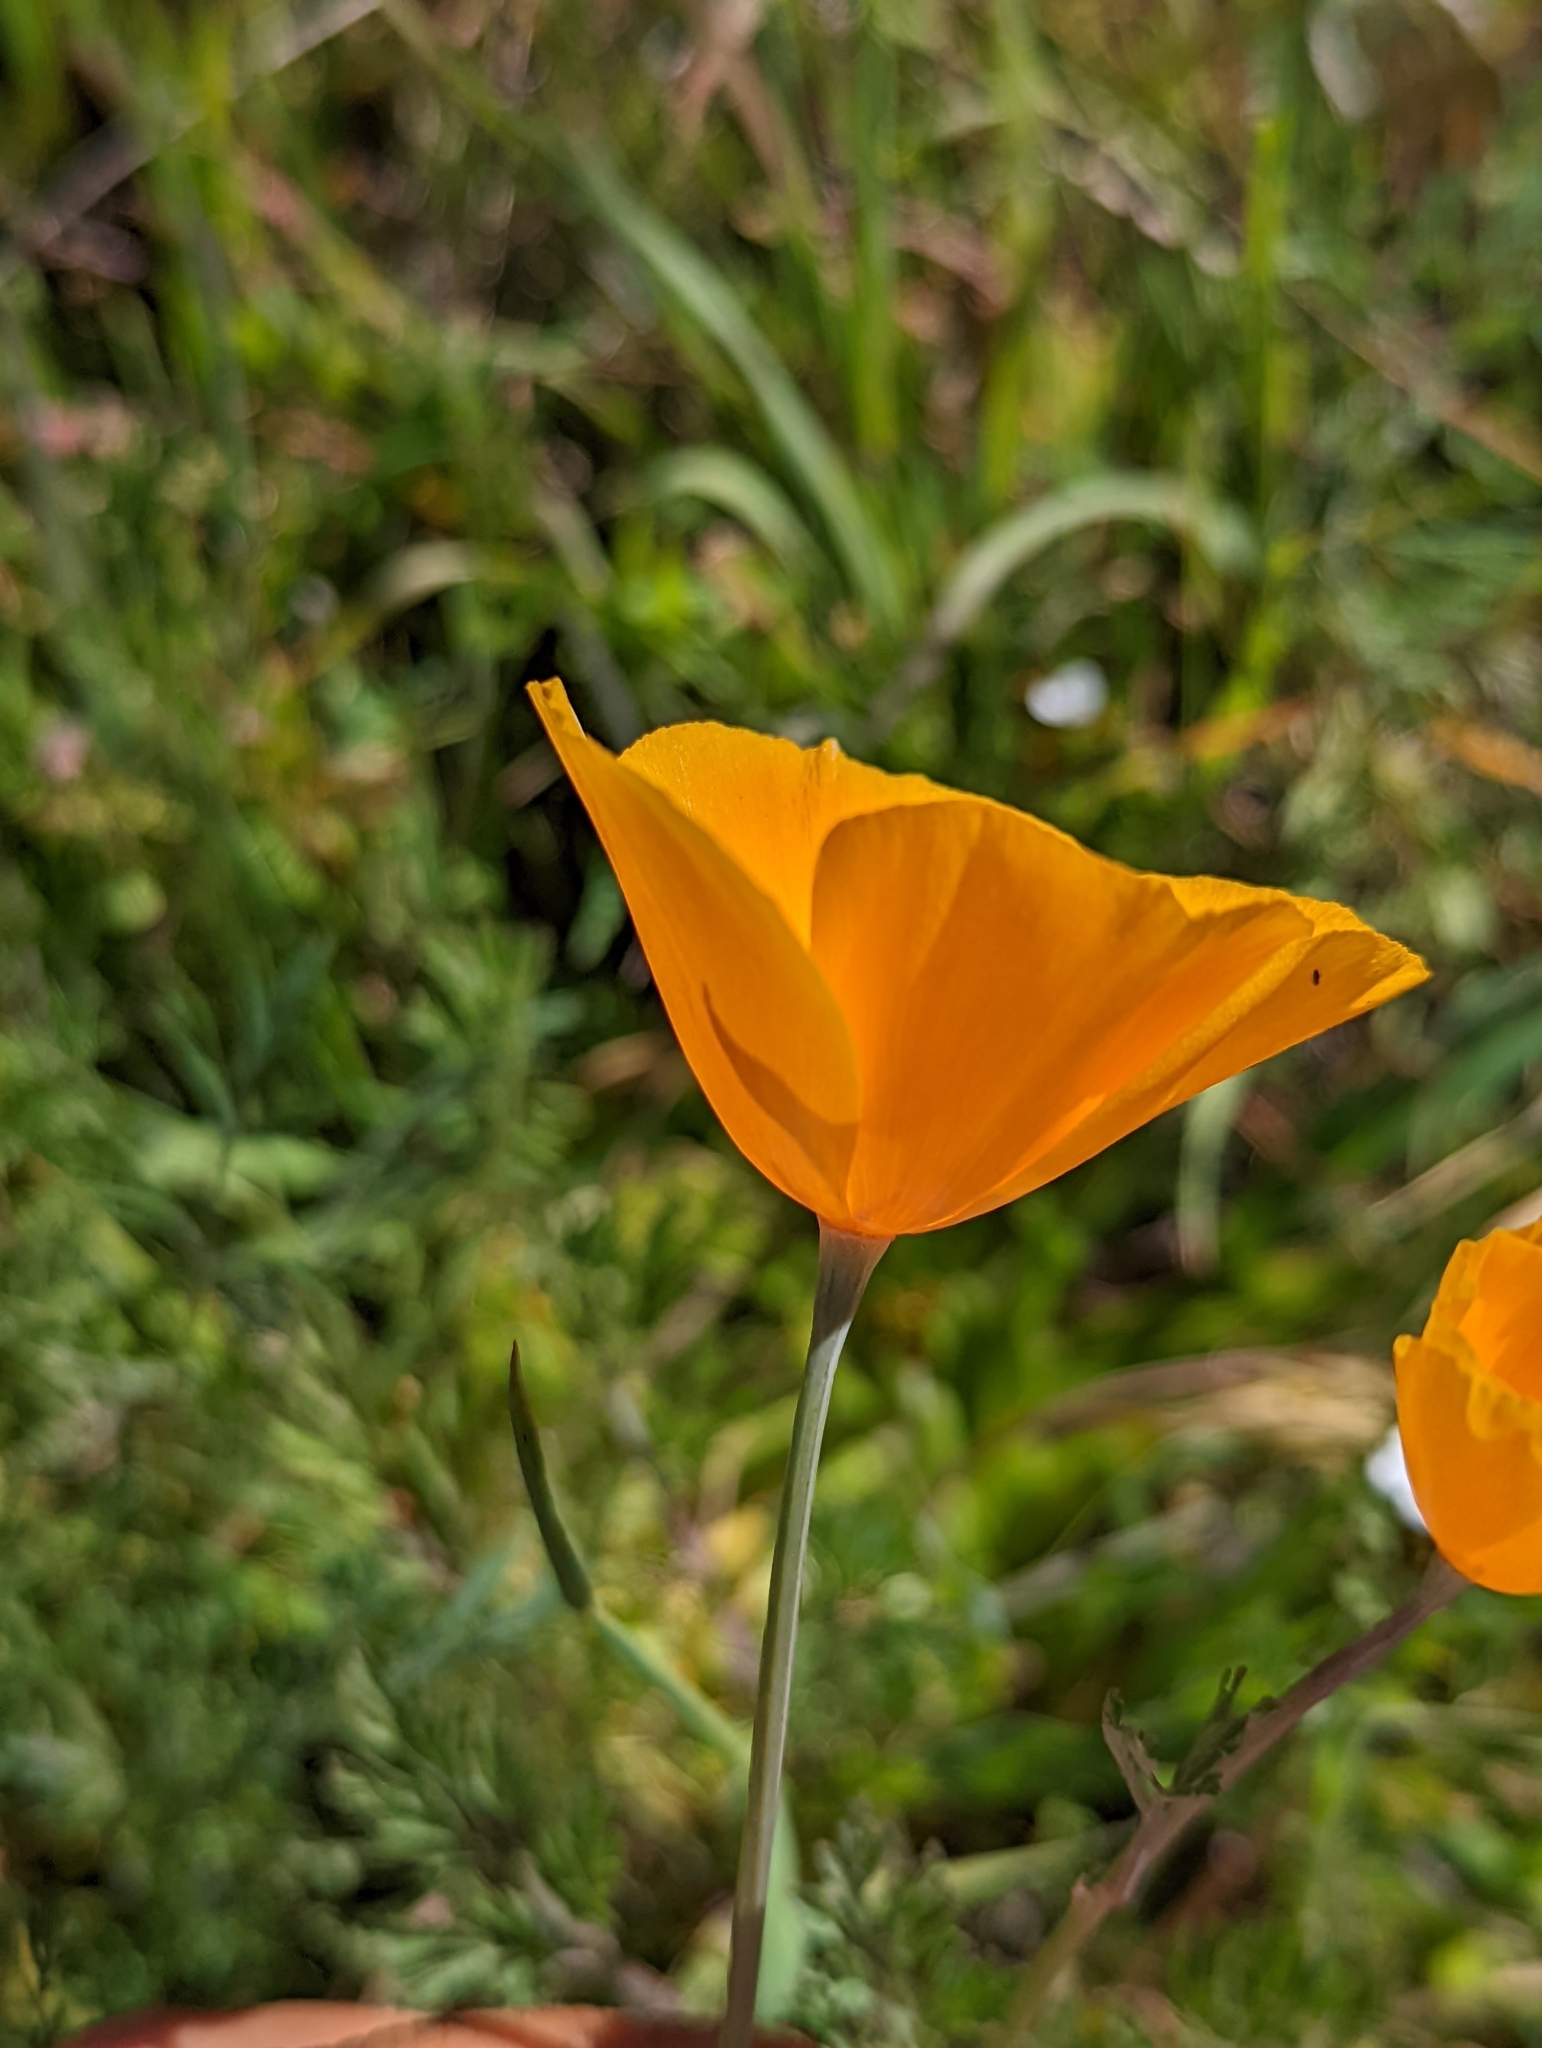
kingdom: Plantae
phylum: Tracheophyta
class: Magnoliopsida
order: Ranunculales
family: Papaveraceae
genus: Eschscholzia
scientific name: Eschscholzia caespitosa
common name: Tufted california-poppy
